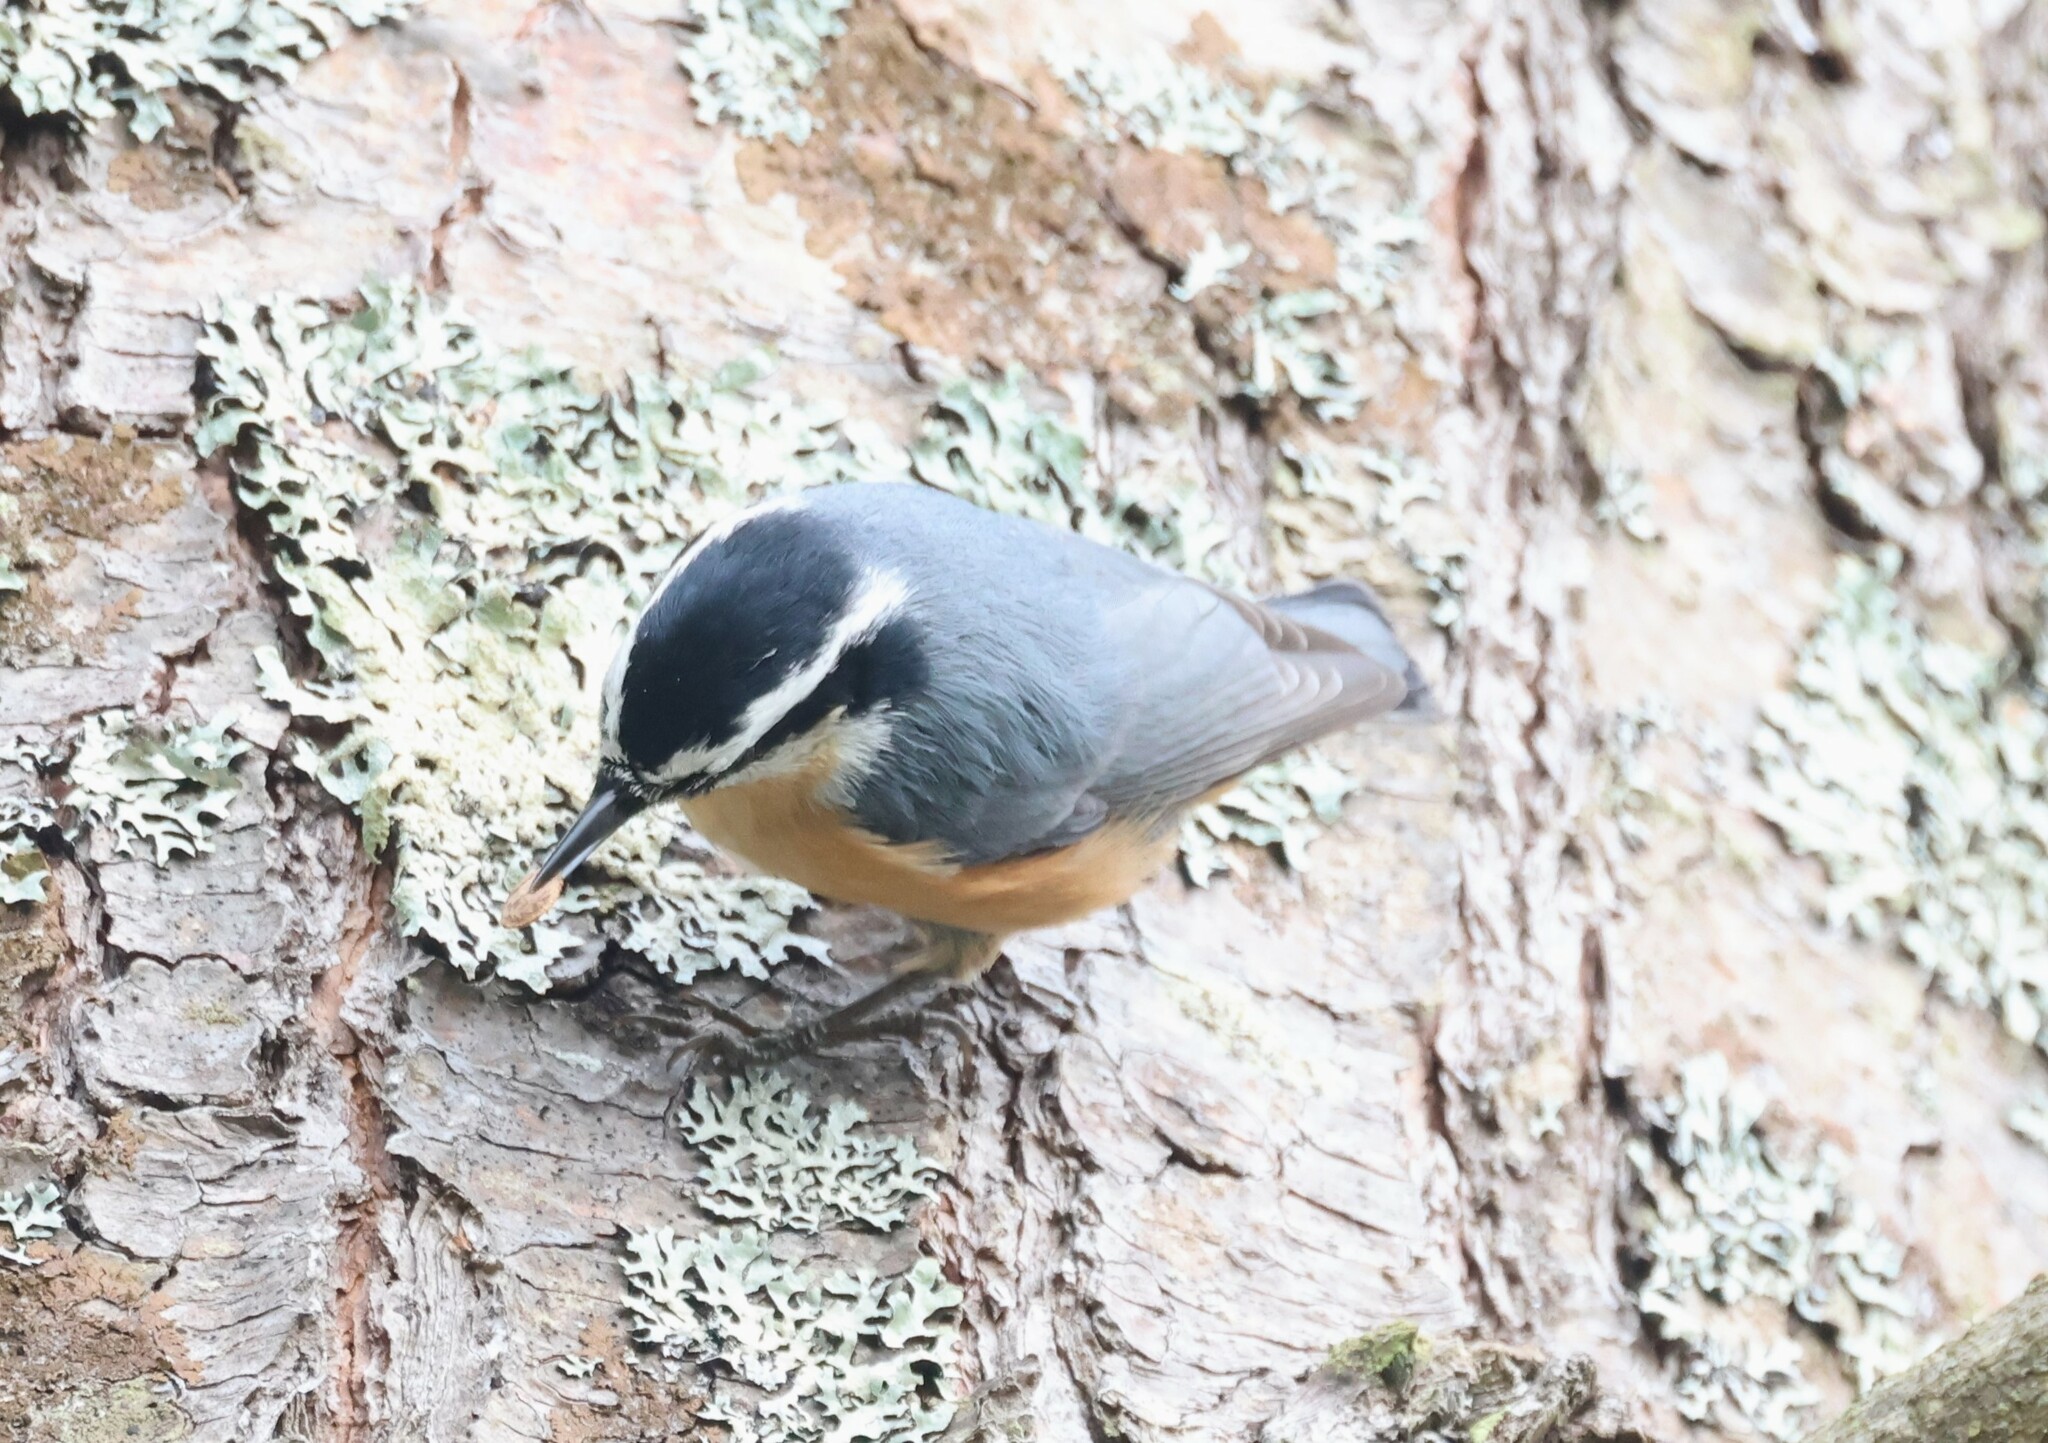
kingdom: Animalia
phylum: Chordata
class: Aves
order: Passeriformes
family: Sittidae
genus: Sitta
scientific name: Sitta canadensis
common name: Red-breasted nuthatch
